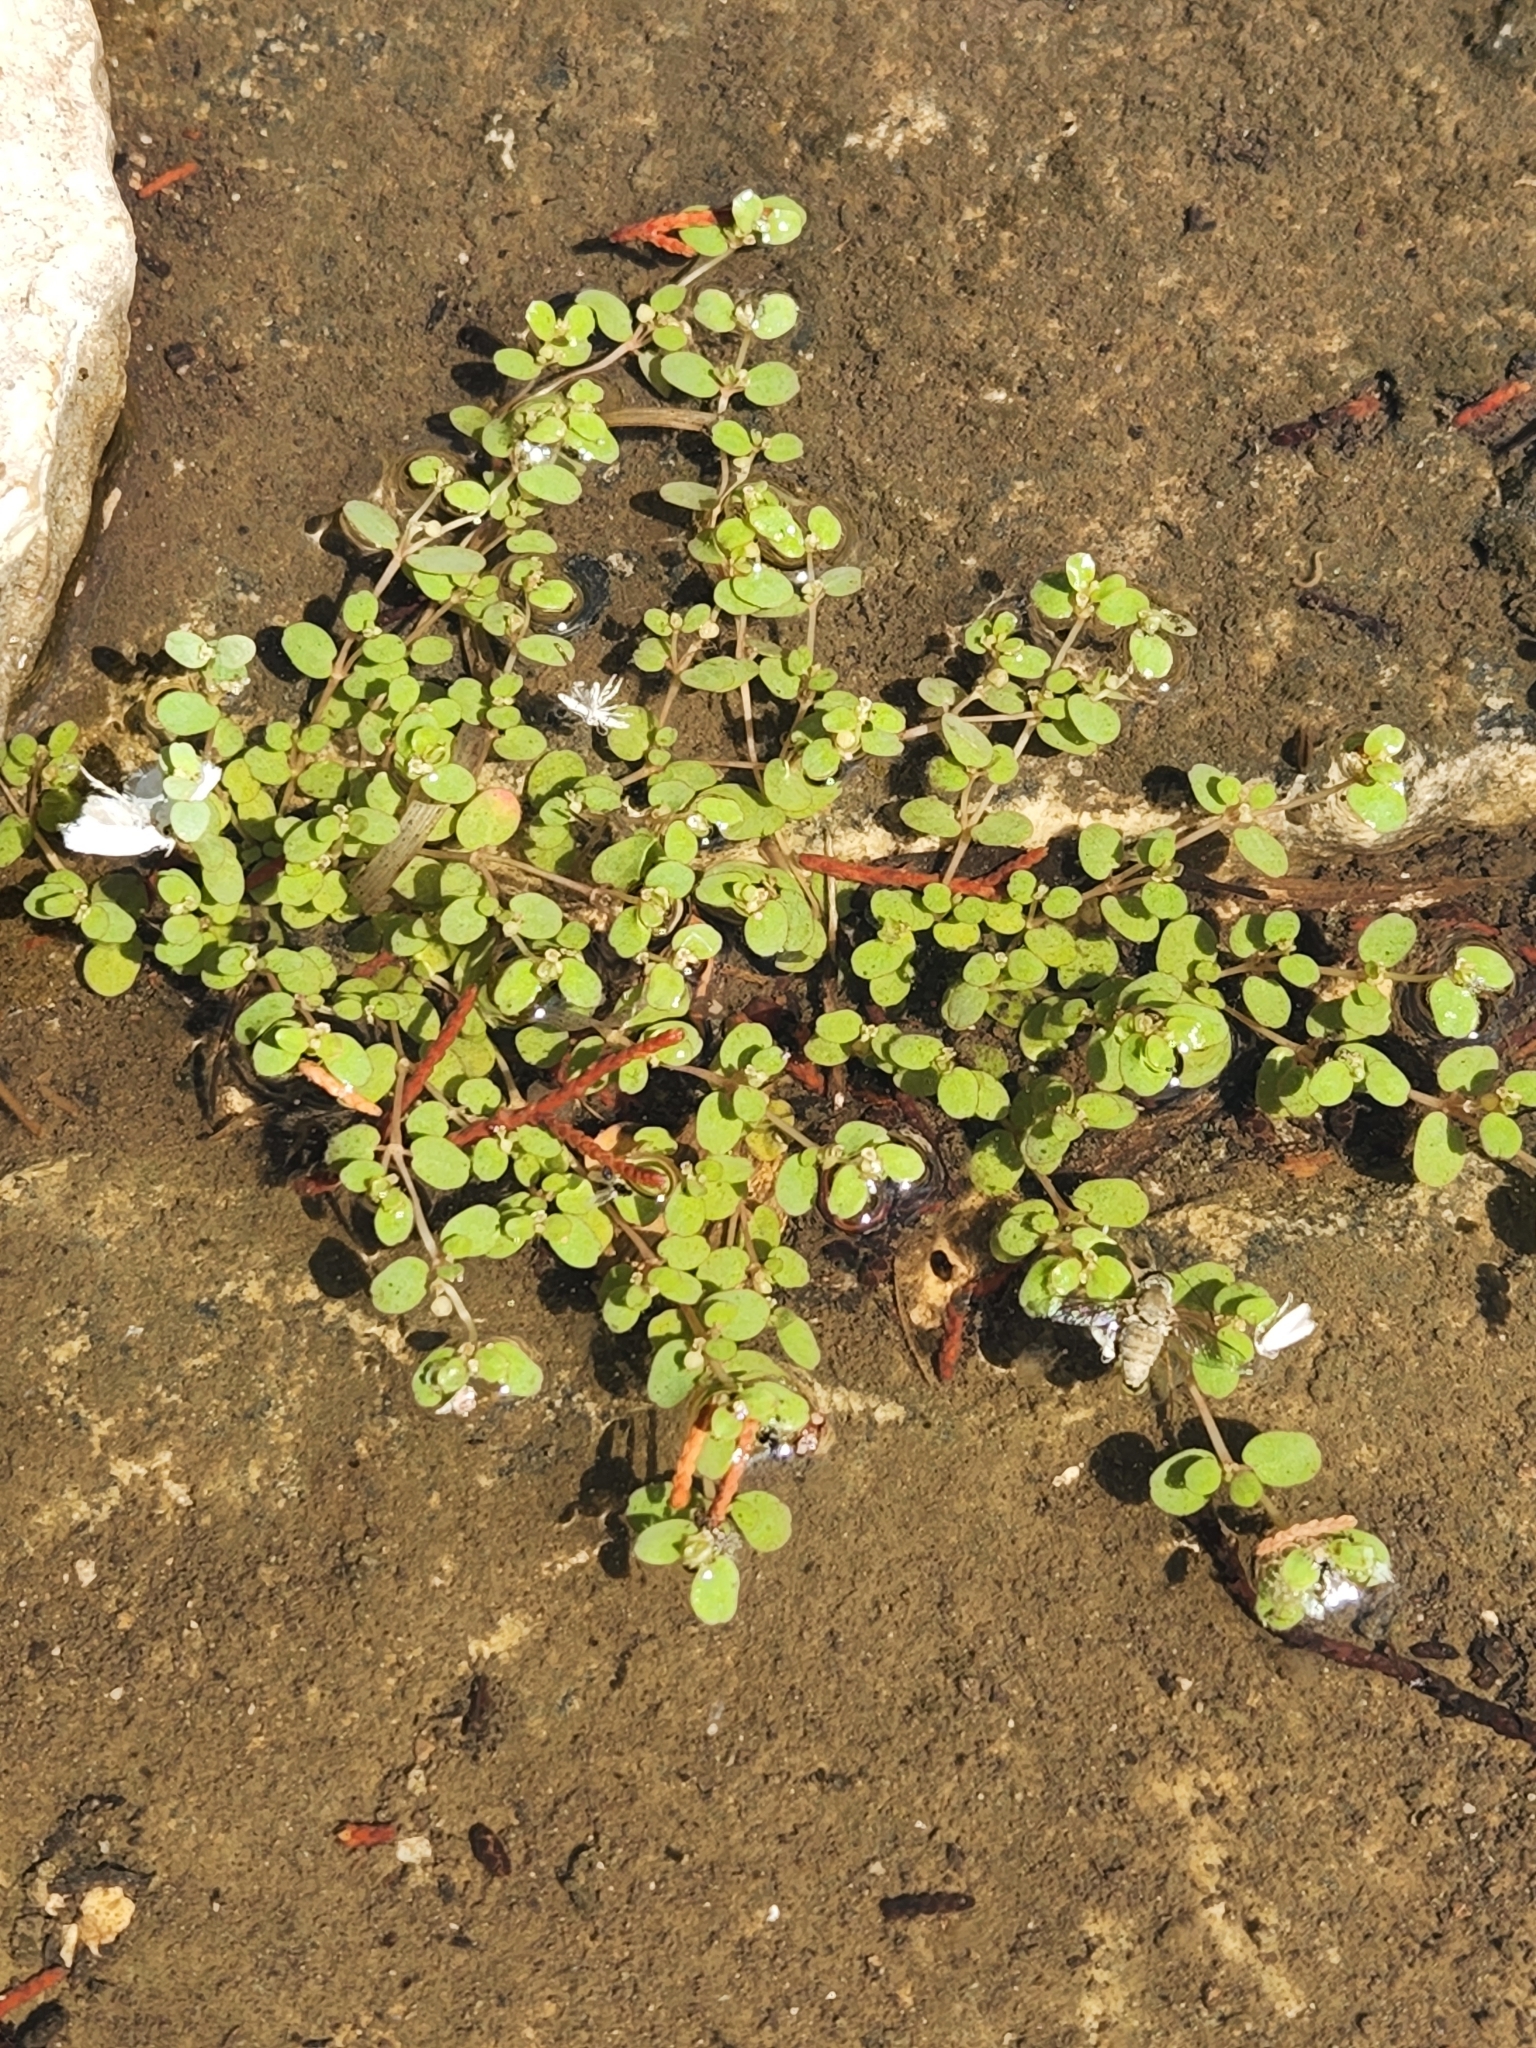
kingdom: Plantae
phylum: Tracheophyta
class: Magnoliopsida
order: Malpighiales
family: Euphorbiaceae
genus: Euphorbia
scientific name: Euphorbia serpens
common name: Matted sandmat
